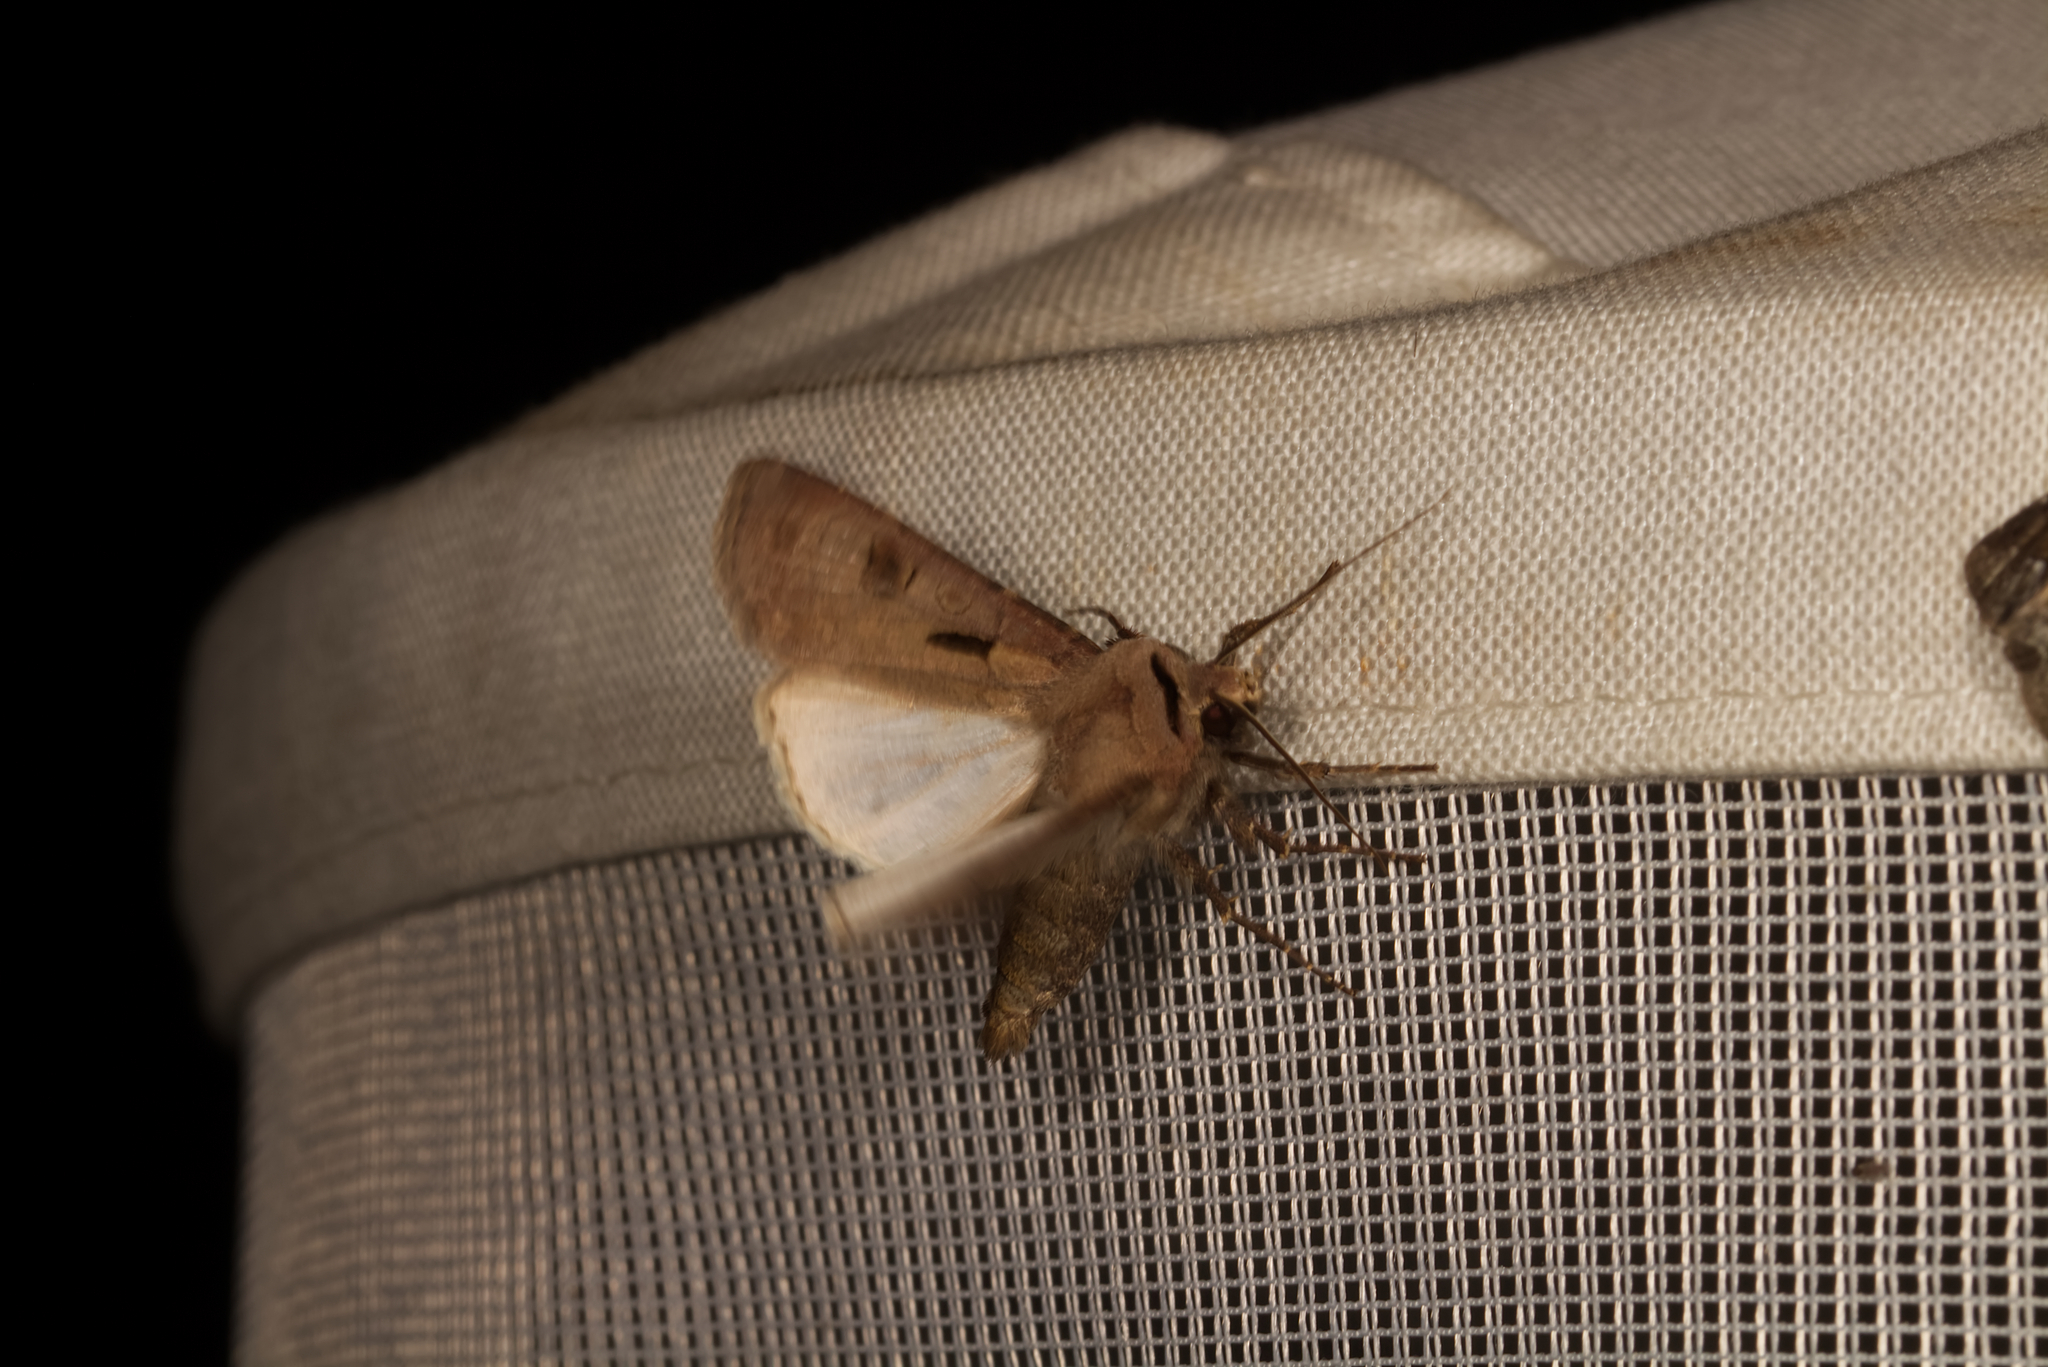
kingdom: Animalia
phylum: Arthropoda
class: Insecta
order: Lepidoptera
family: Noctuidae
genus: Agrotis
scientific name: Agrotis exclamationis
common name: Heart and dart
